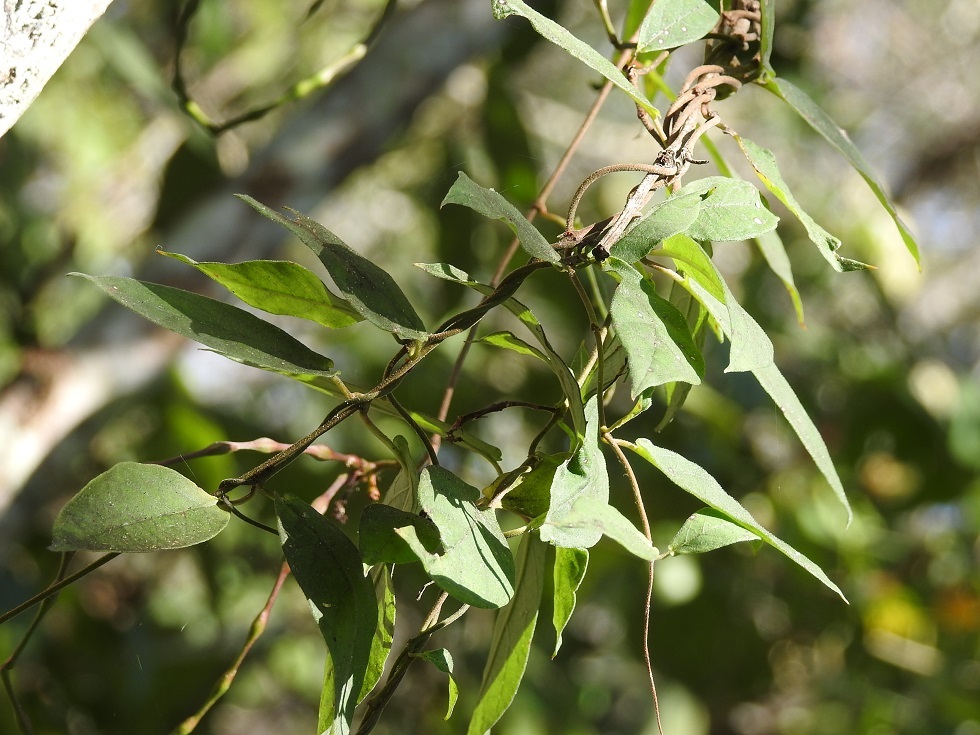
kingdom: Plantae
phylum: Tracheophyta
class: Magnoliopsida
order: Gentianales
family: Apocynaceae
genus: Mandevilla
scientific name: Mandevilla subsagittata
